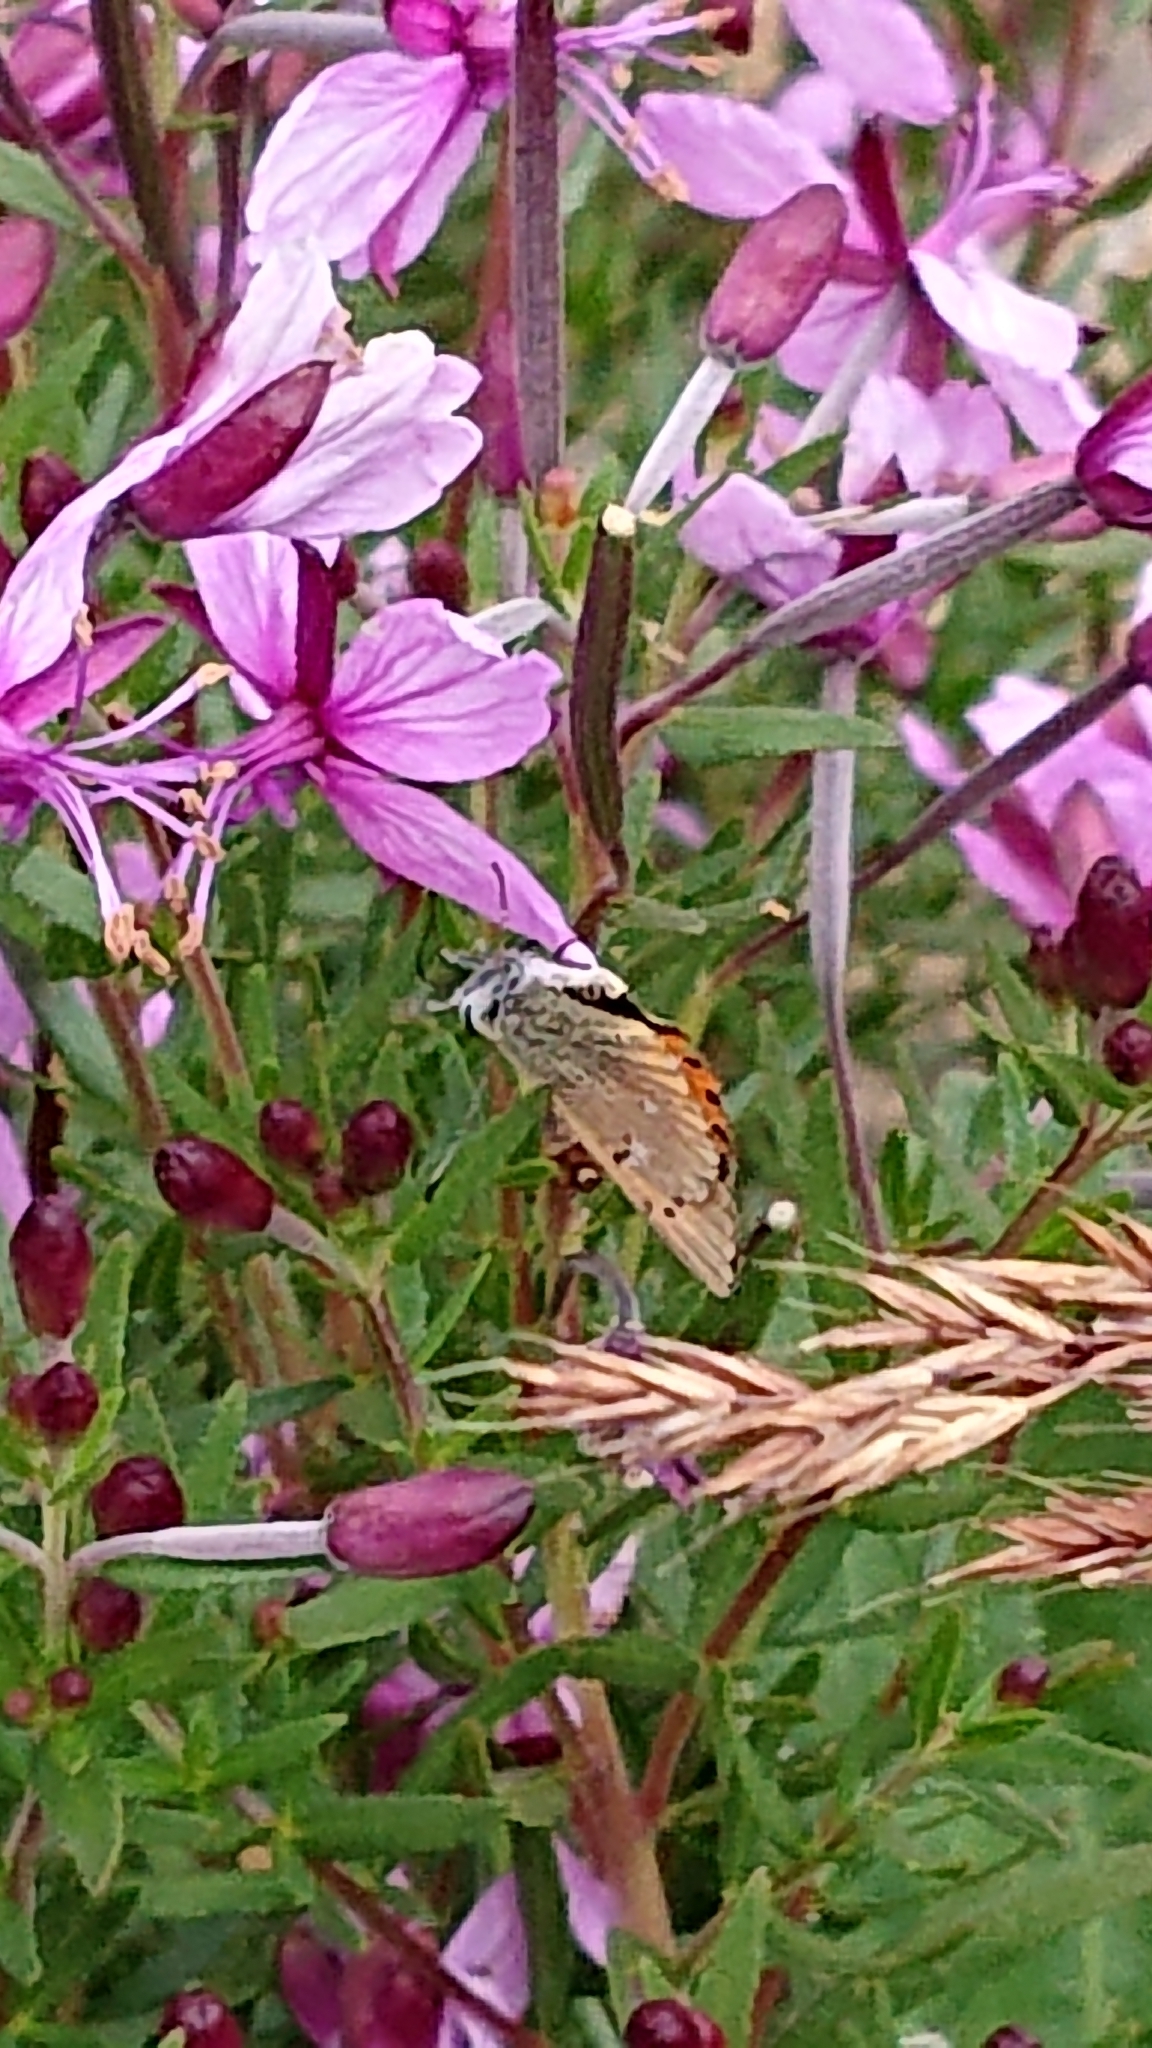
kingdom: Animalia
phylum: Arthropoda
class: Insecta
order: Lepidoptera
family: Lycaenidae
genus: Lycaena
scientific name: Lycaena virgaureae
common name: Scarce copper
